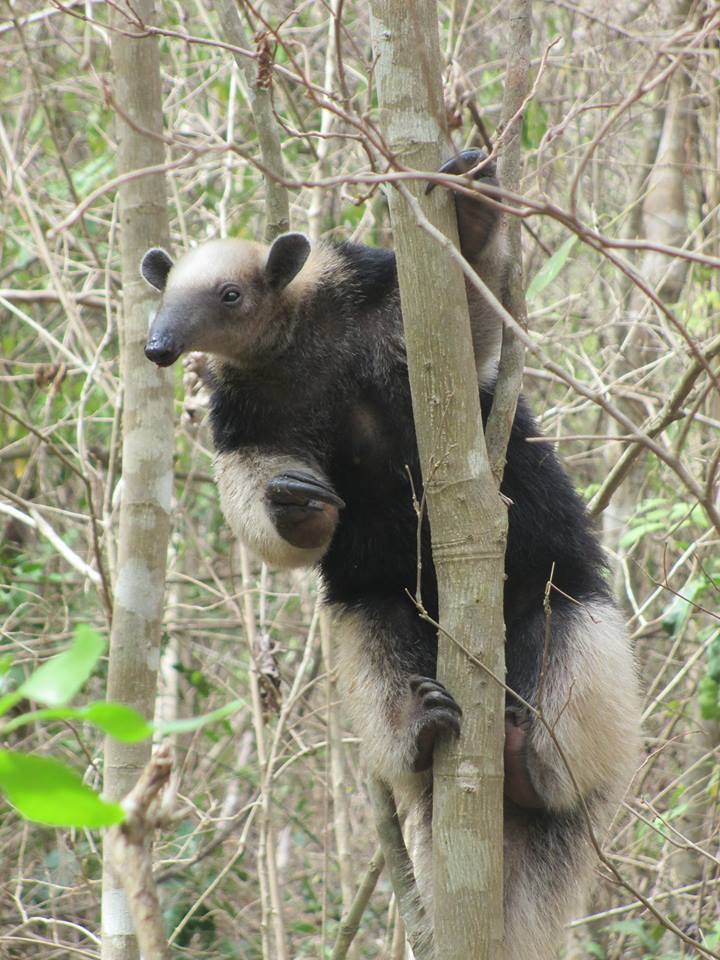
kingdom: Animalia
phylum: Chordata
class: Mammalia
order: Pilosa
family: Myrmecophagidae
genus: Tamandua
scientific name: Tamandua mexicana
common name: Northern tamandua
